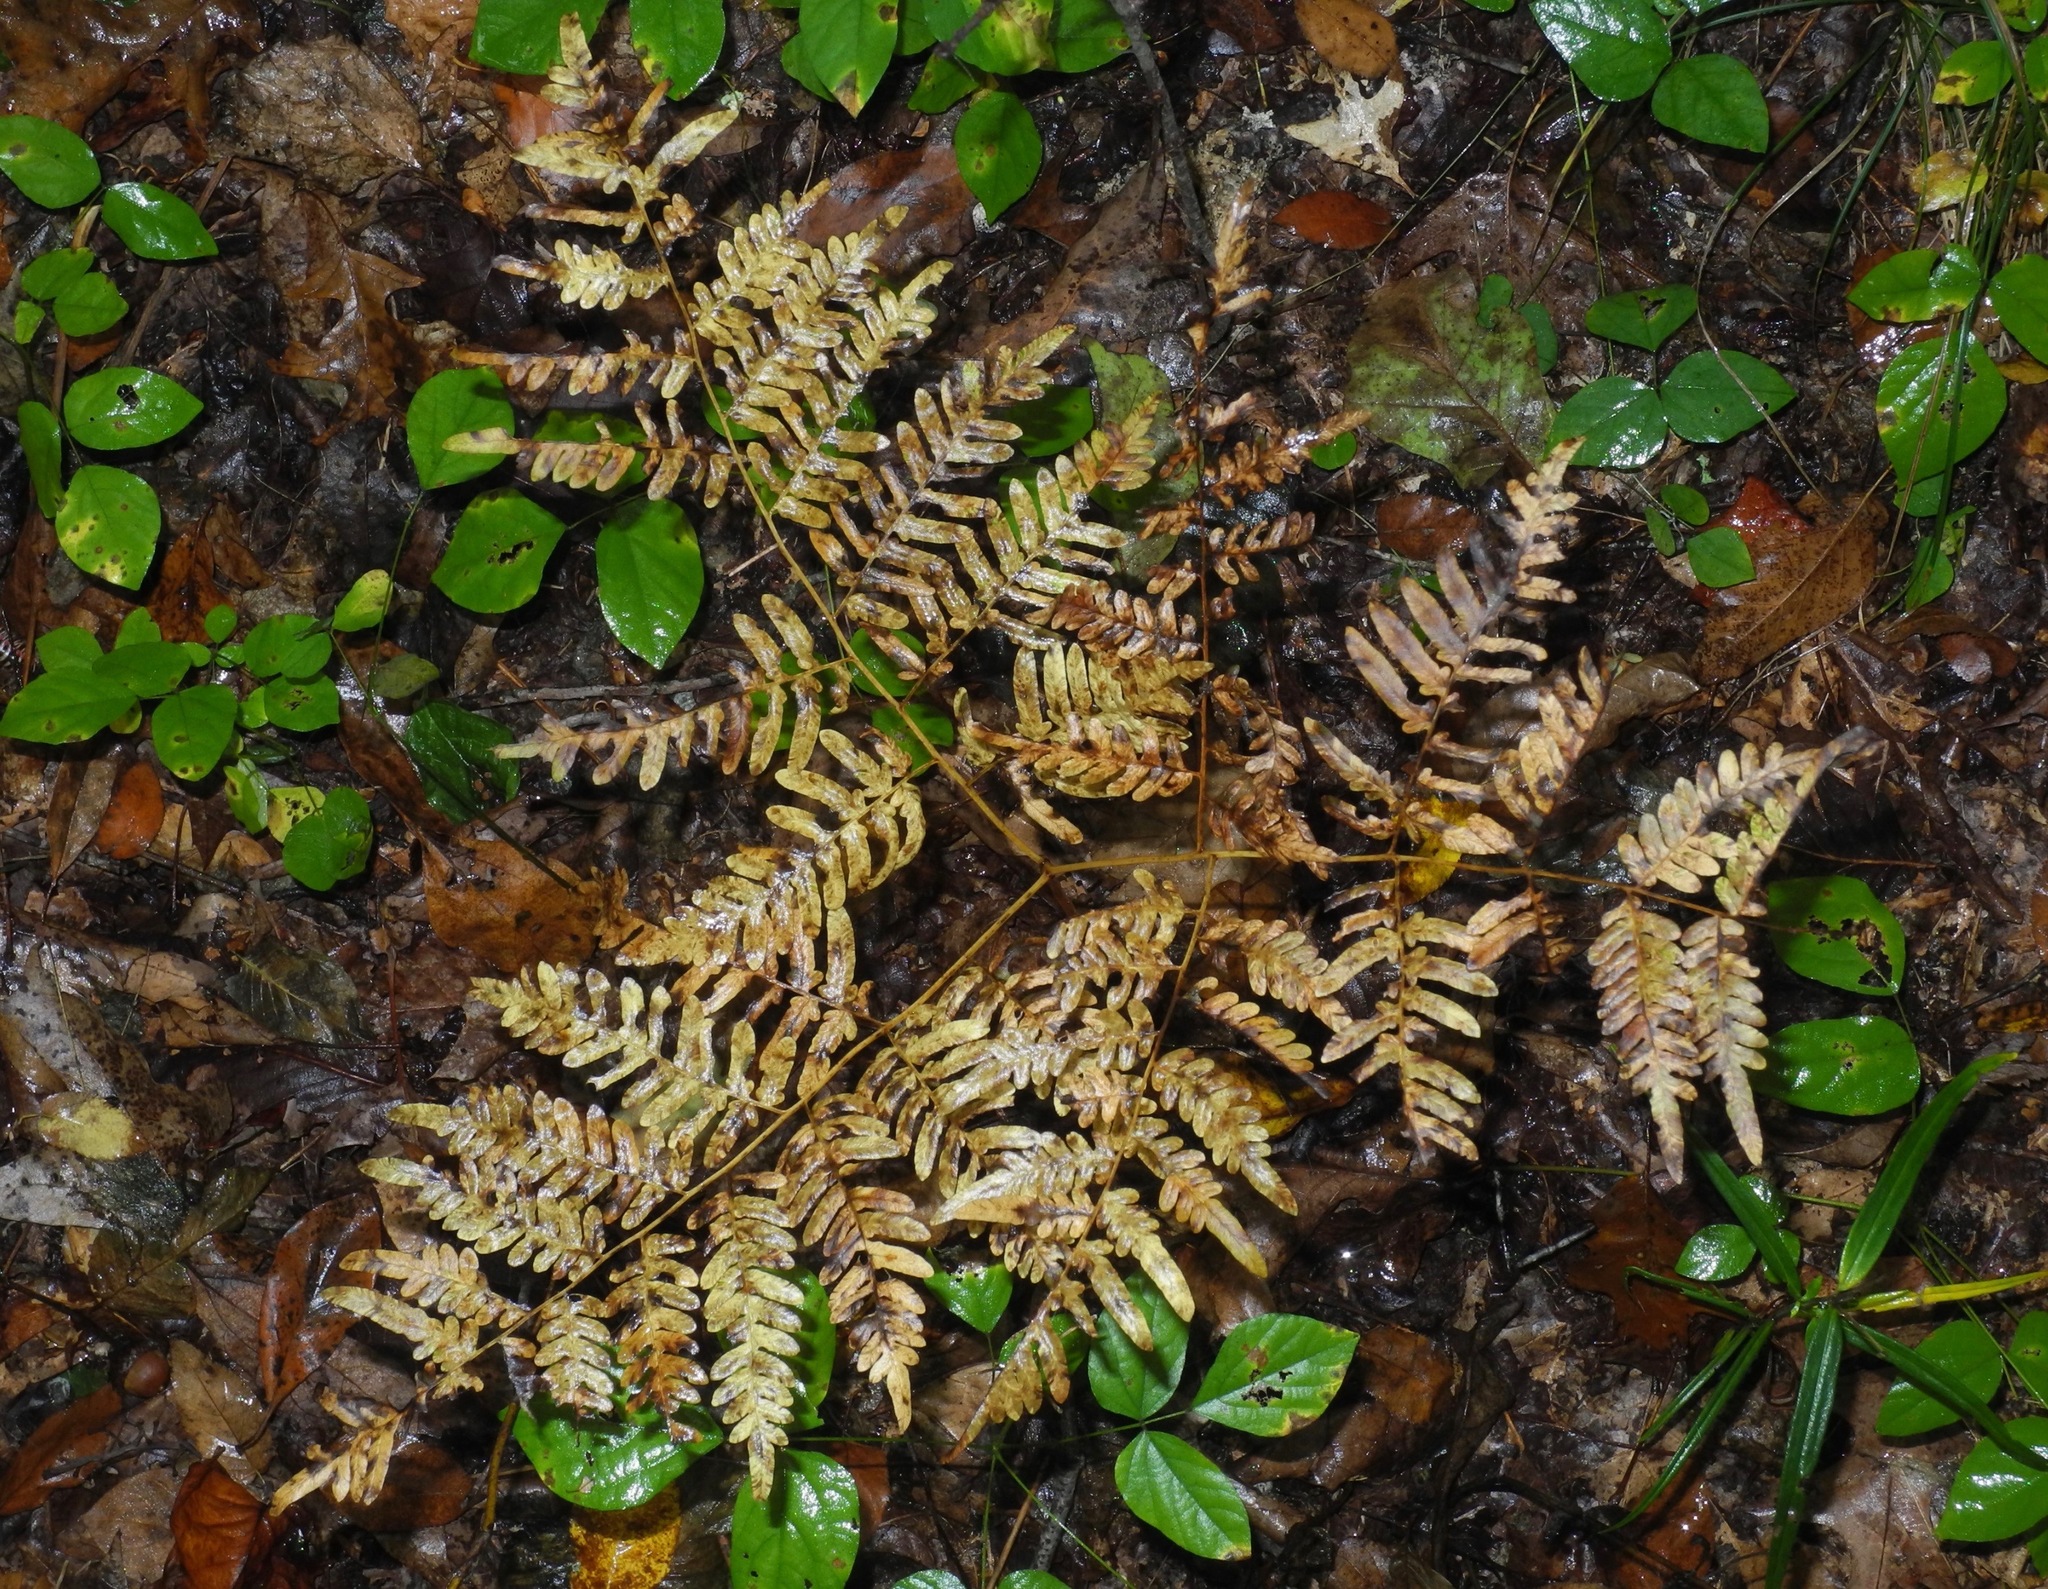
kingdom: Plantae
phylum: Tracheophyta
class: Polypodiopsida
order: Polypodiales
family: Dennstaedtiaceae
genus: Pteridium
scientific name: Pteridium aquilinum
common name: Bracken
